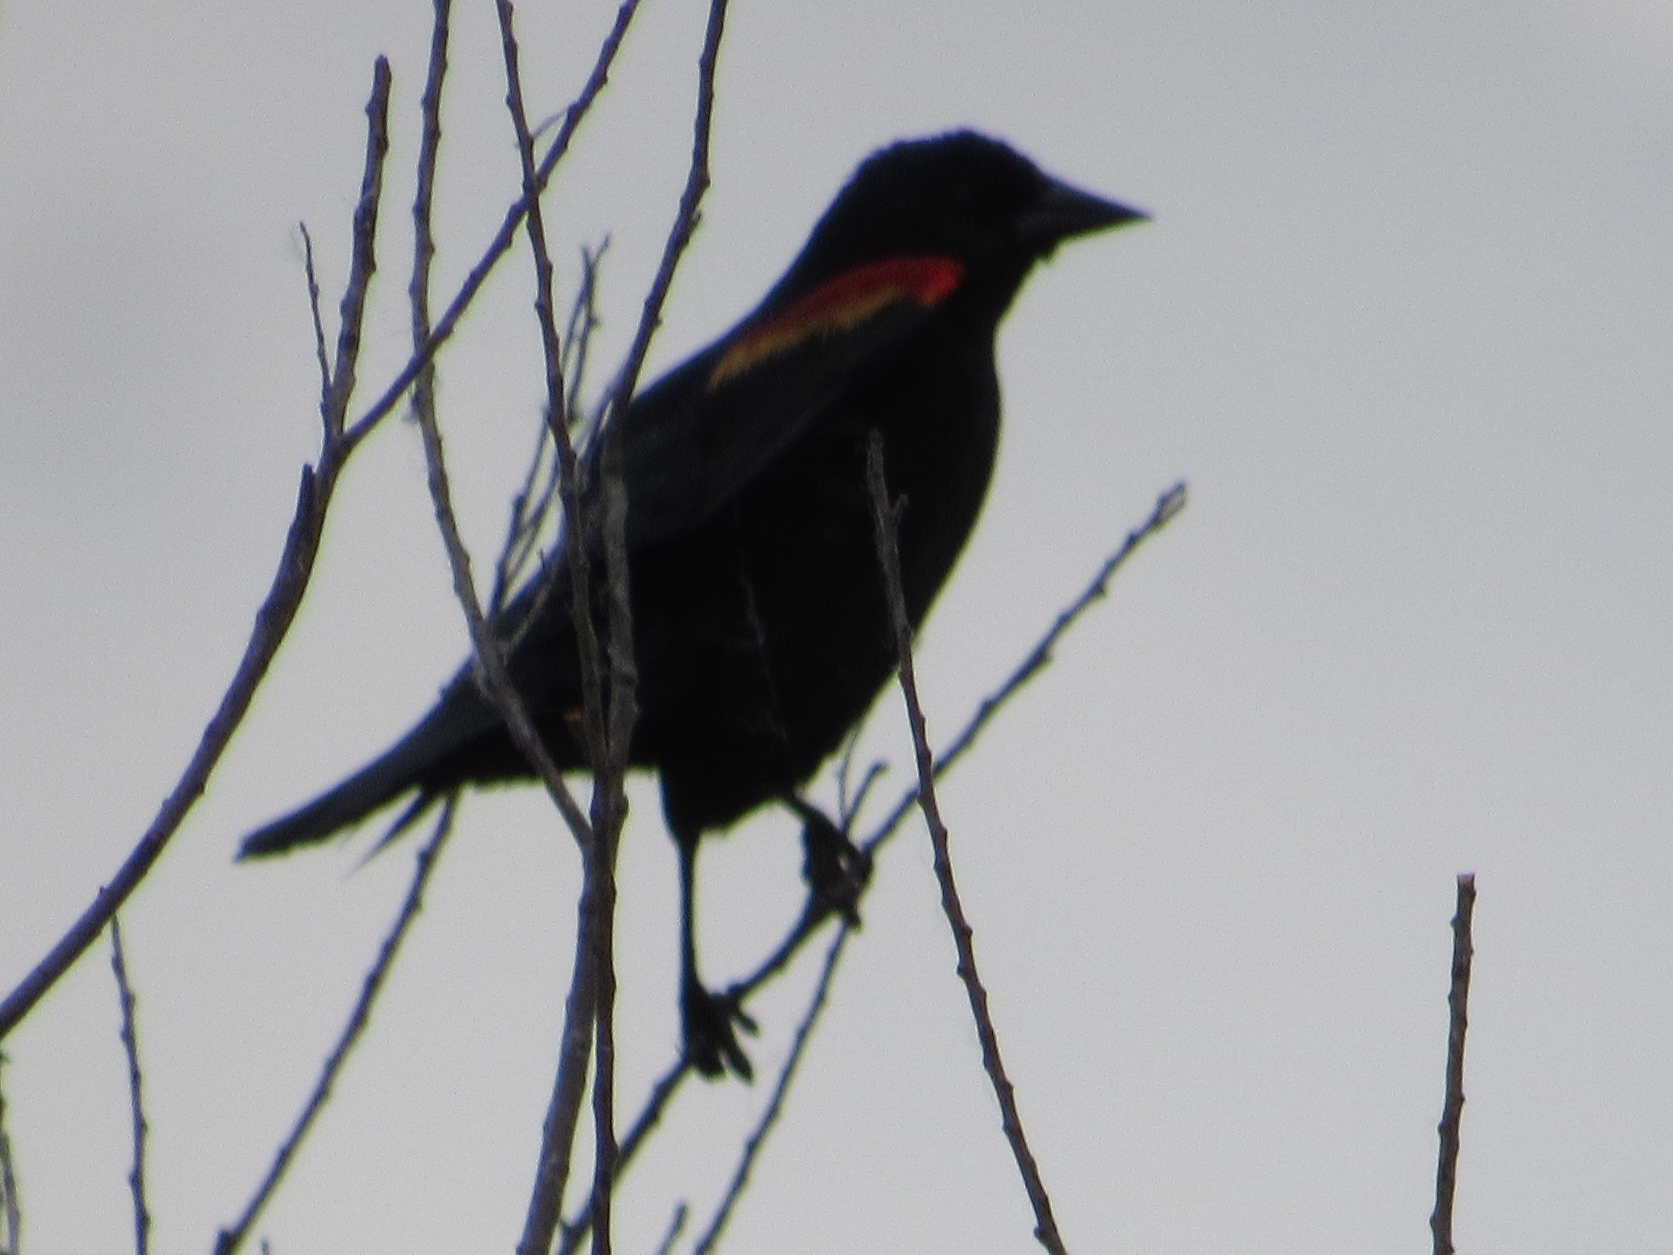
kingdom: Animalia
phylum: Chordata
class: Aves
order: Passeriformes
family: Icteridae
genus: Agelaius
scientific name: Agelaius phoeniceus
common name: Red-winged blackbird
